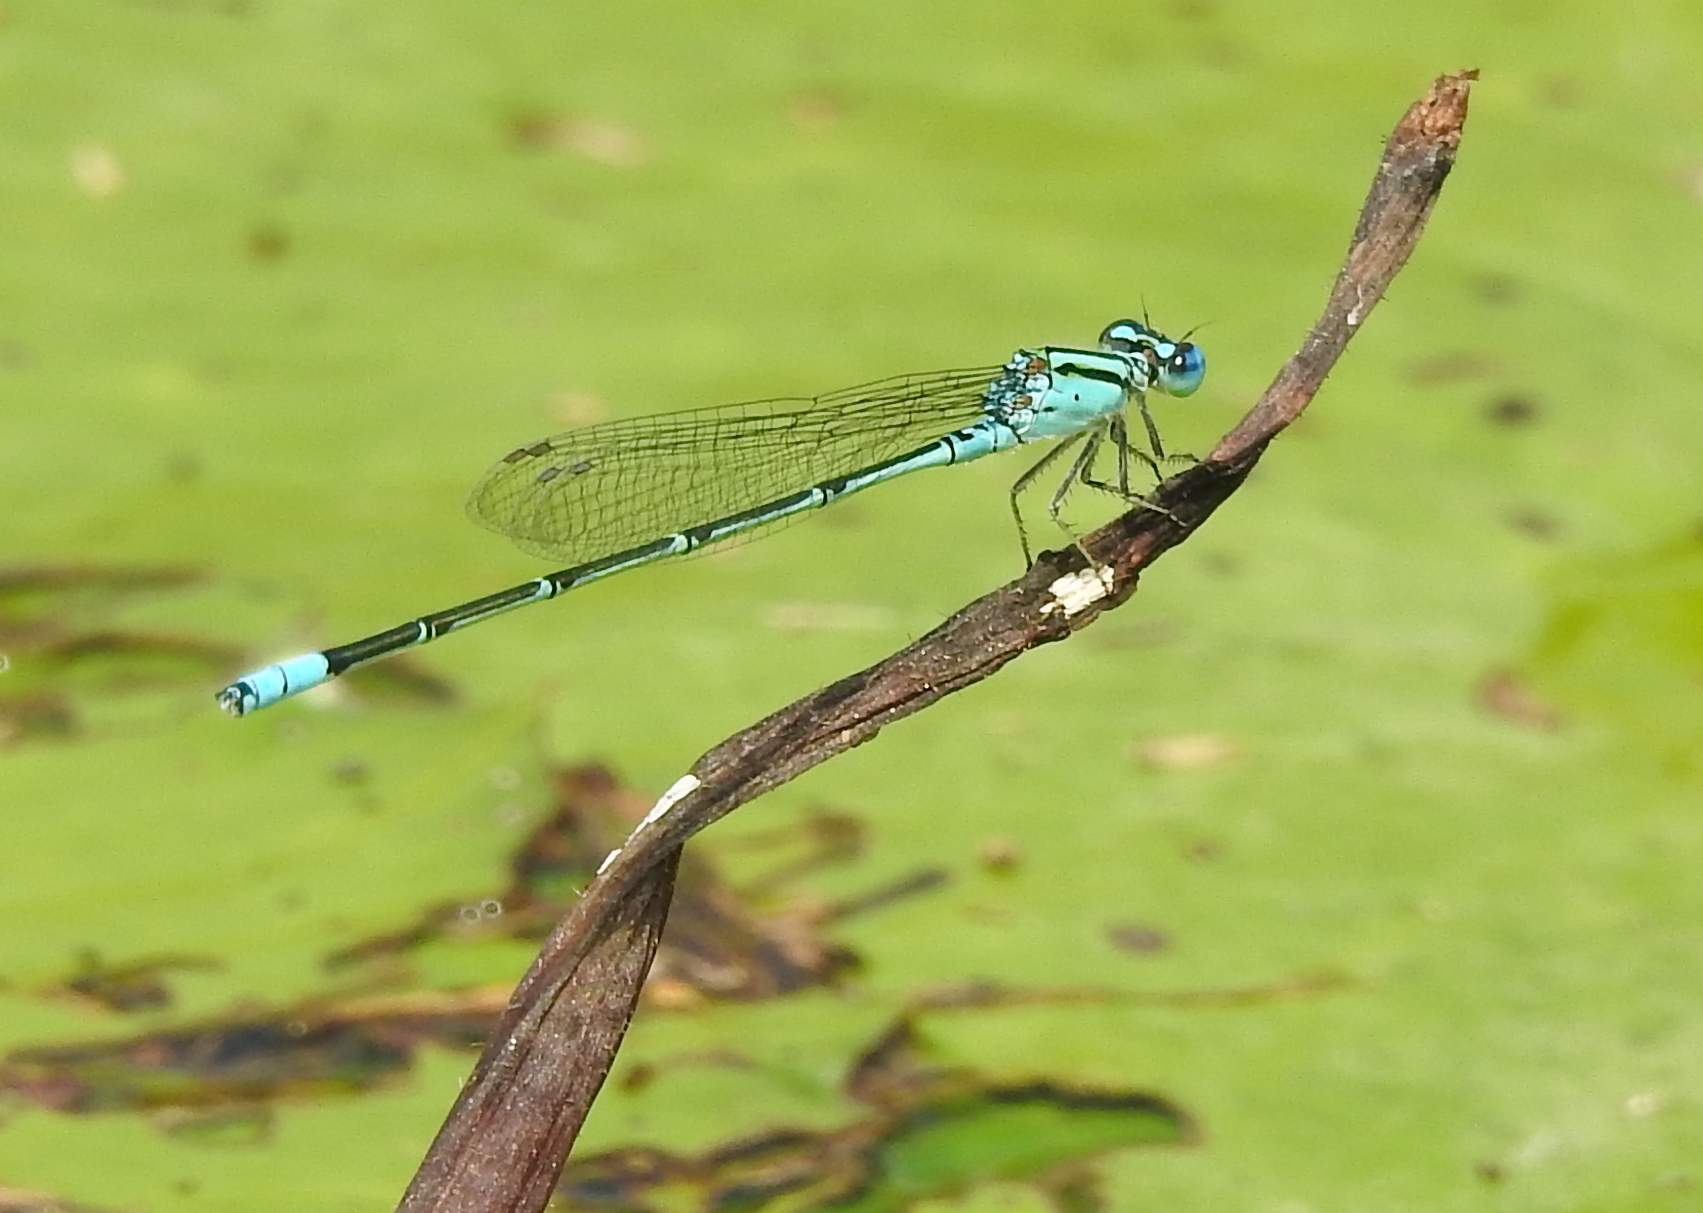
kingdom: Animalia
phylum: Arthropoda
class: Insecta
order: Odonata
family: Coenagrionidae
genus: Pseudagrion
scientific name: Pseudagrion microcephalum
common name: Blue riverdamsel
